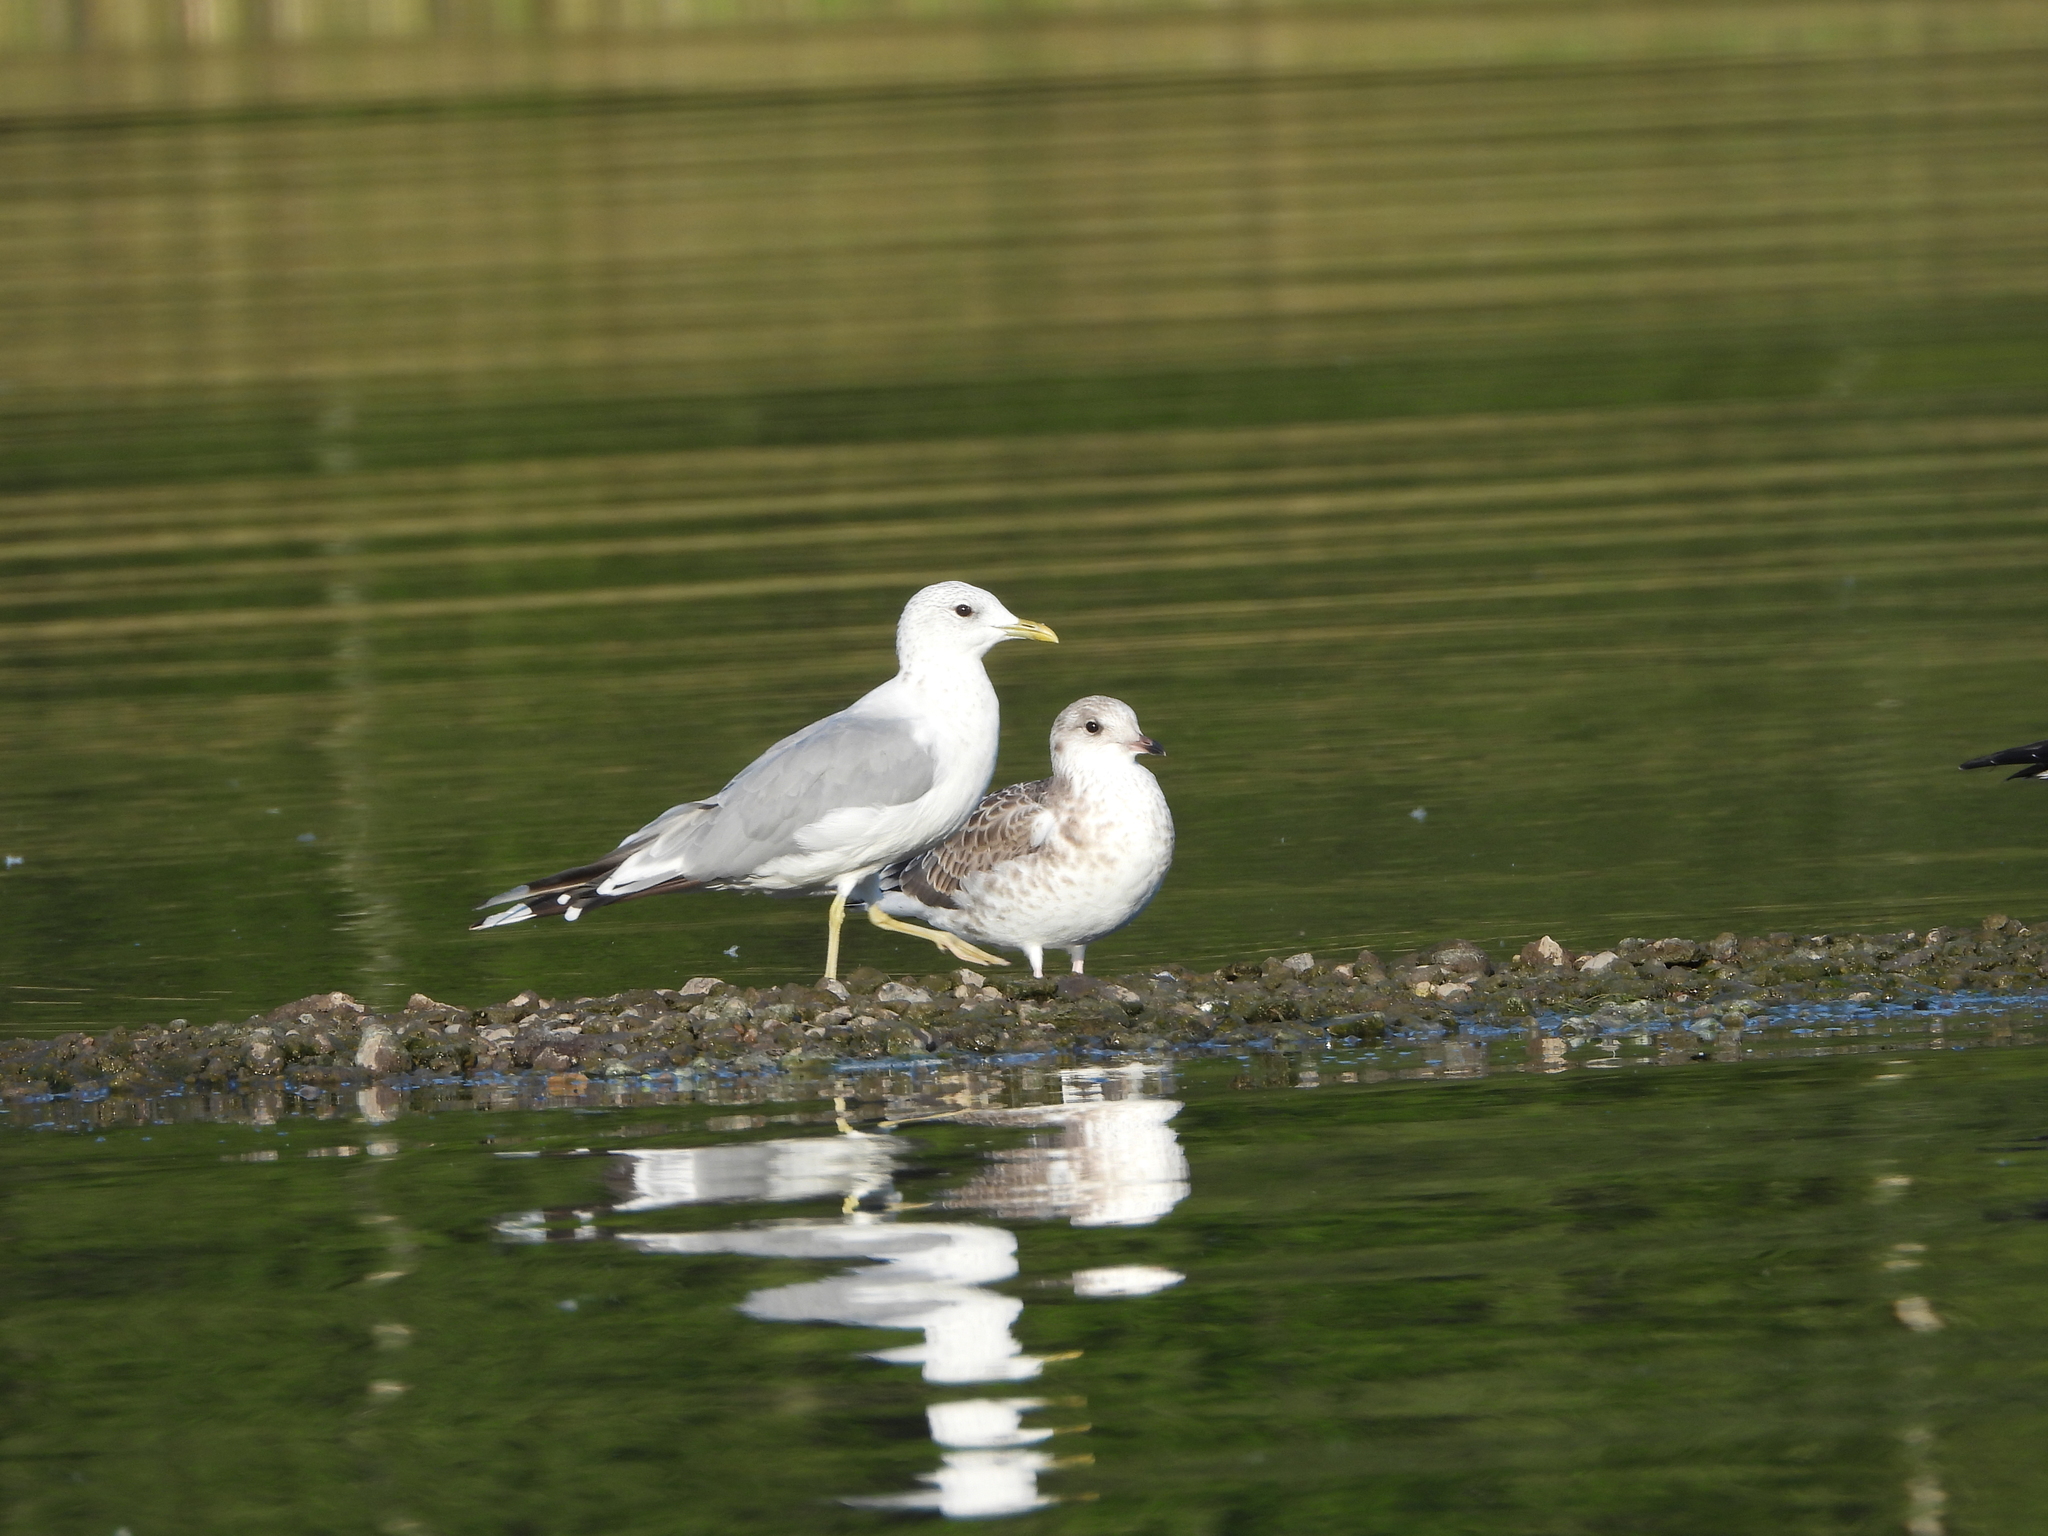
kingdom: Animalia
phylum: Chordata
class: Aves
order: Charadriiformes
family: Laridae
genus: Larus
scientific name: Larus canus
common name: Mew gull
